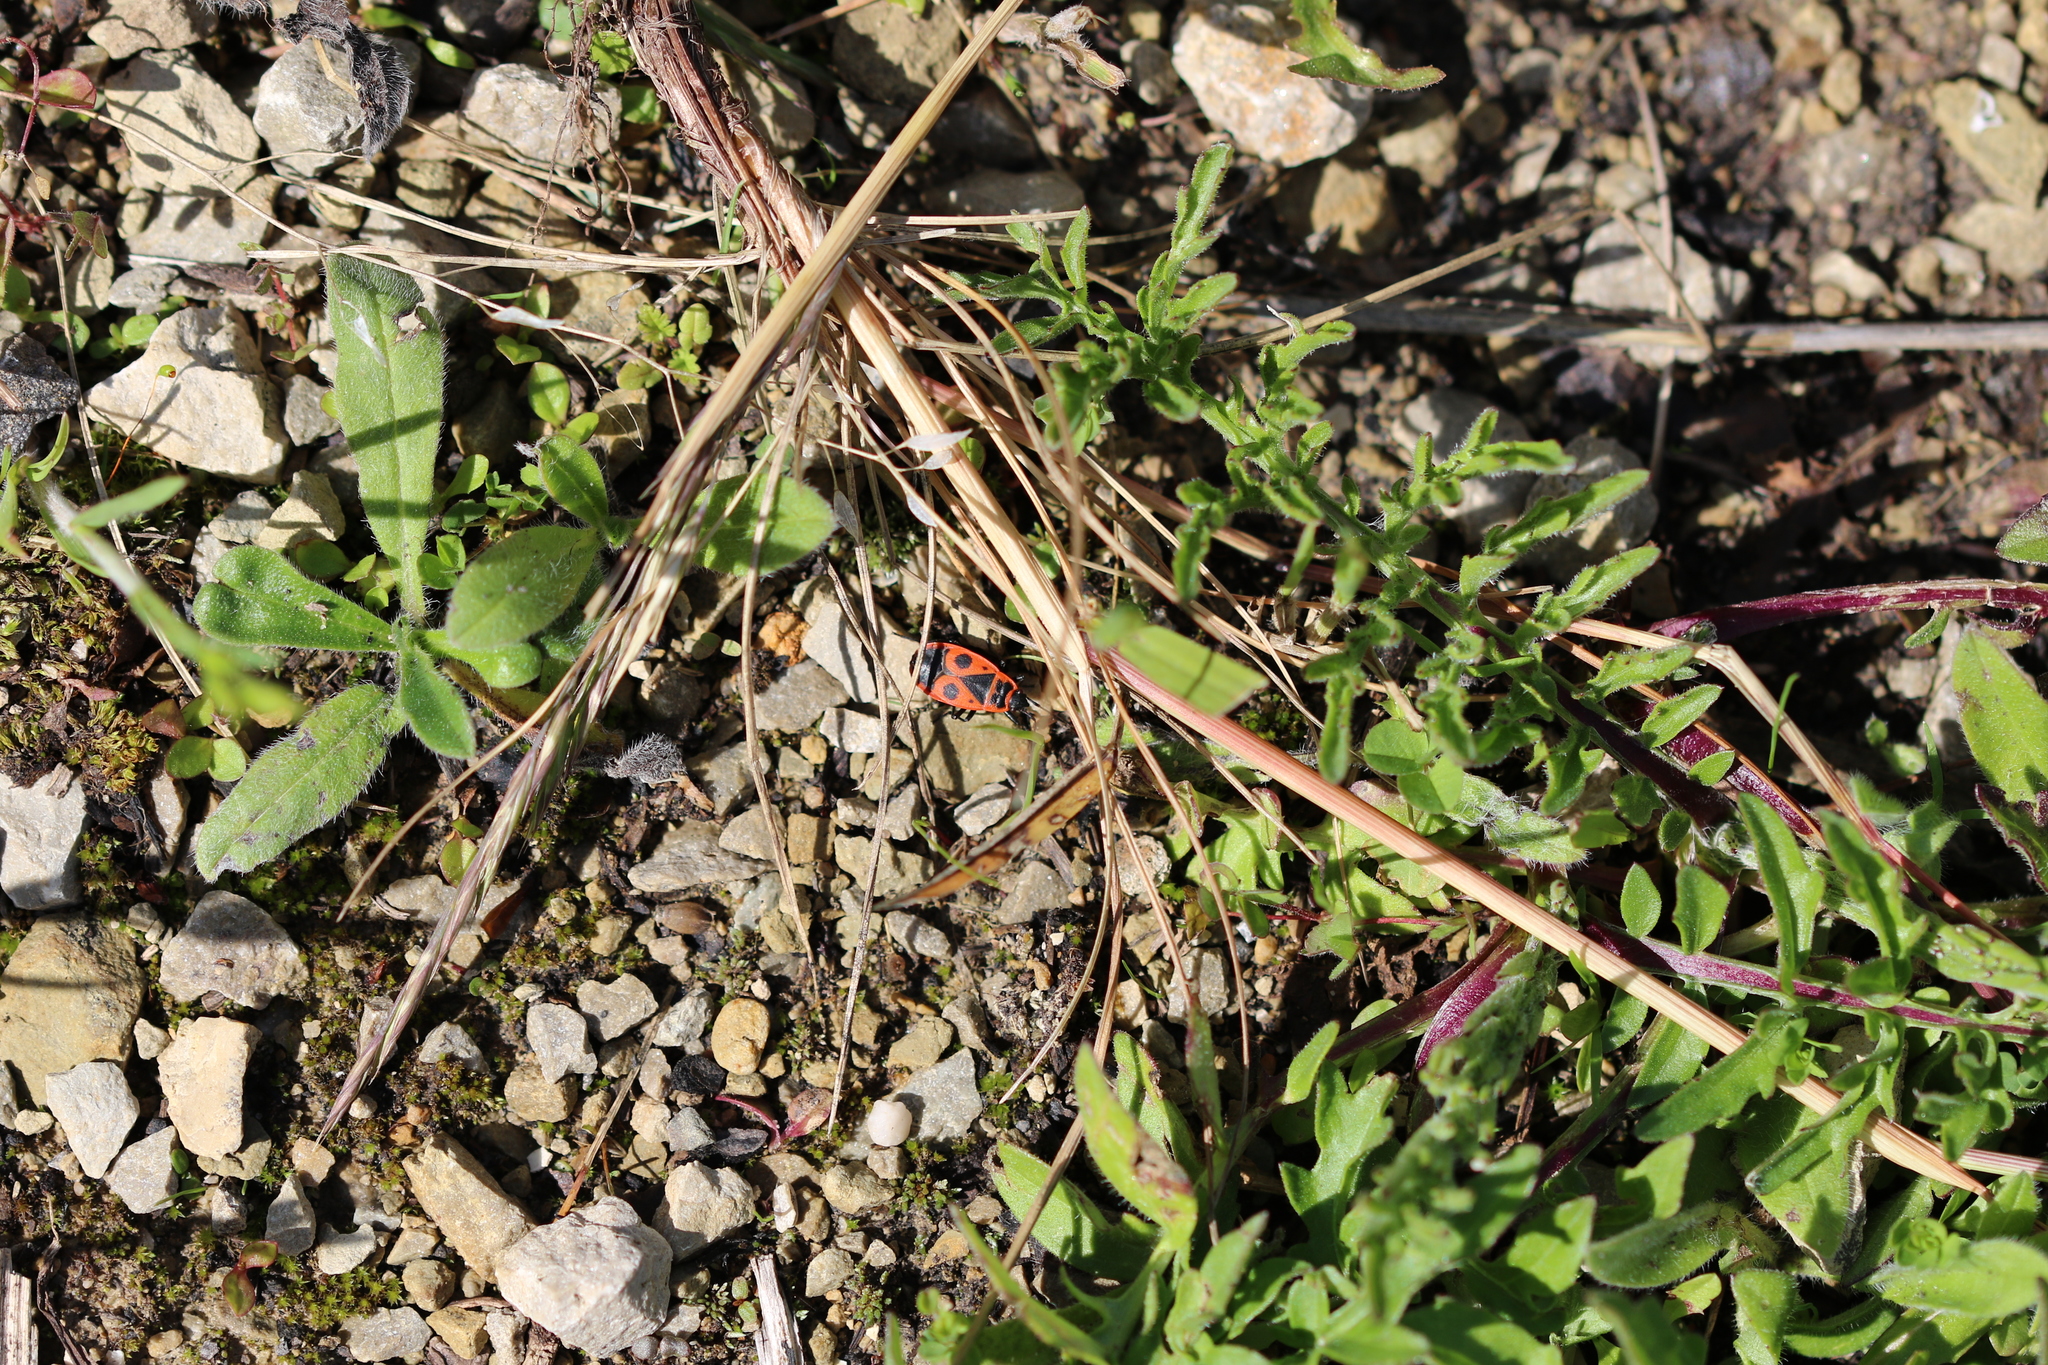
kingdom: Animalia
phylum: Arthropoda
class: Insecta
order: Hemiptera
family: Pyrrhocoridae
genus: Pyrrhocoris
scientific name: Pyrrhocoris apterus
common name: Firebug
